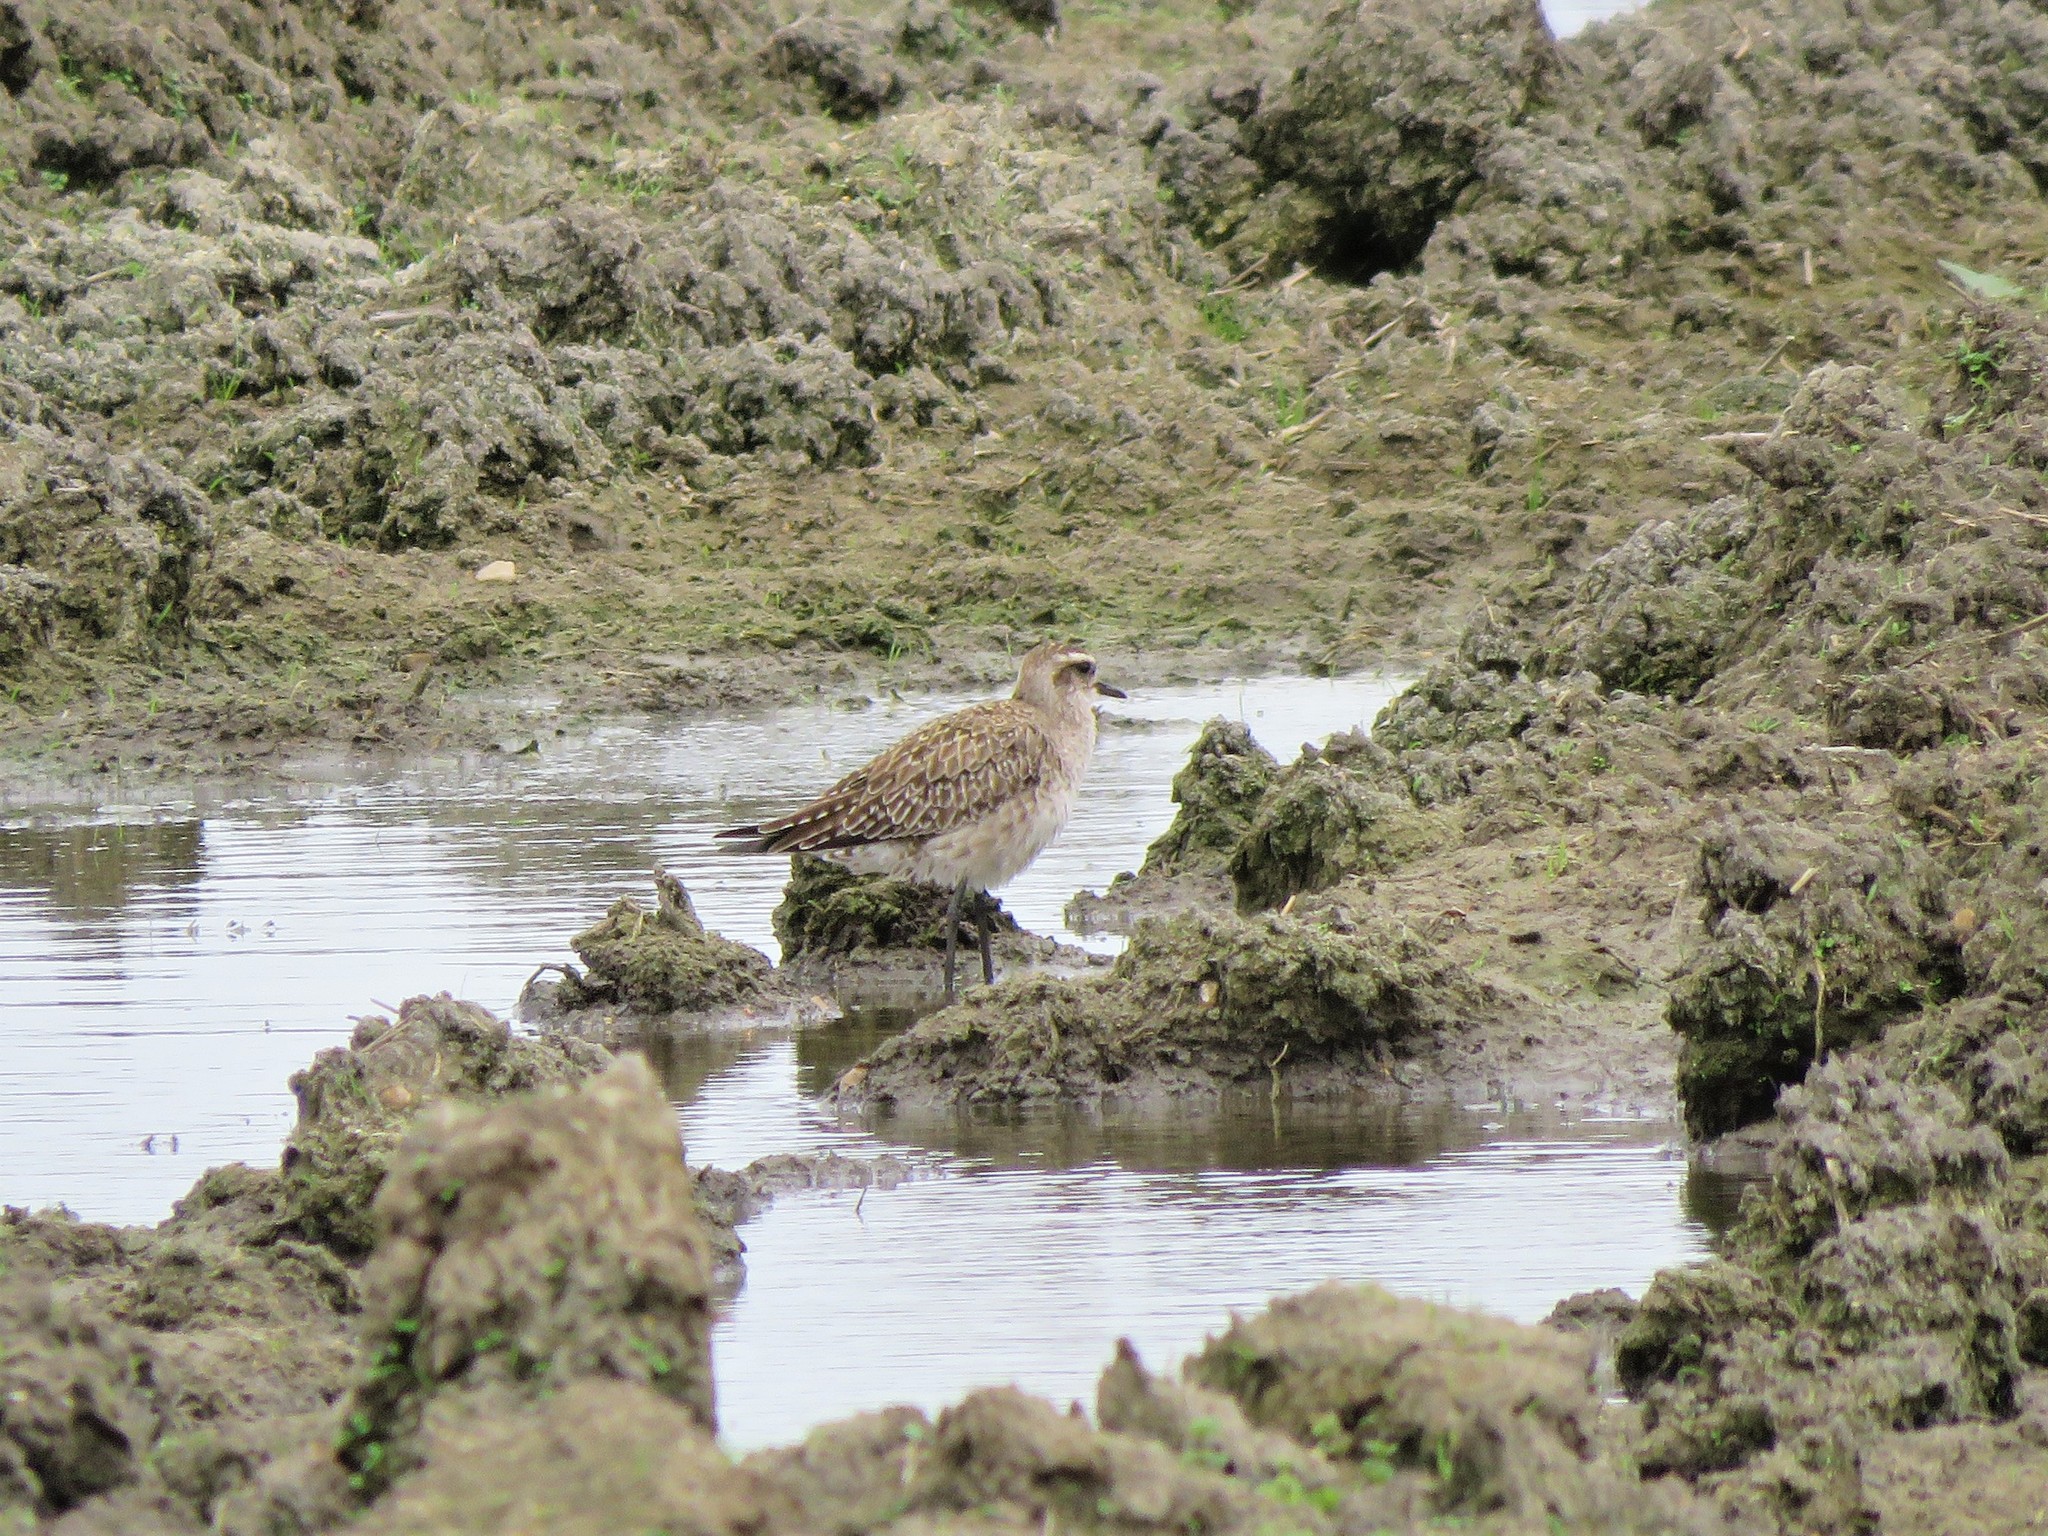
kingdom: Animalia
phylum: Chordata
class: Aves
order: Charadriiformes
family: Charadriidae
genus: Pluvialis
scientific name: Pluvialis dominica
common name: American golden plover
